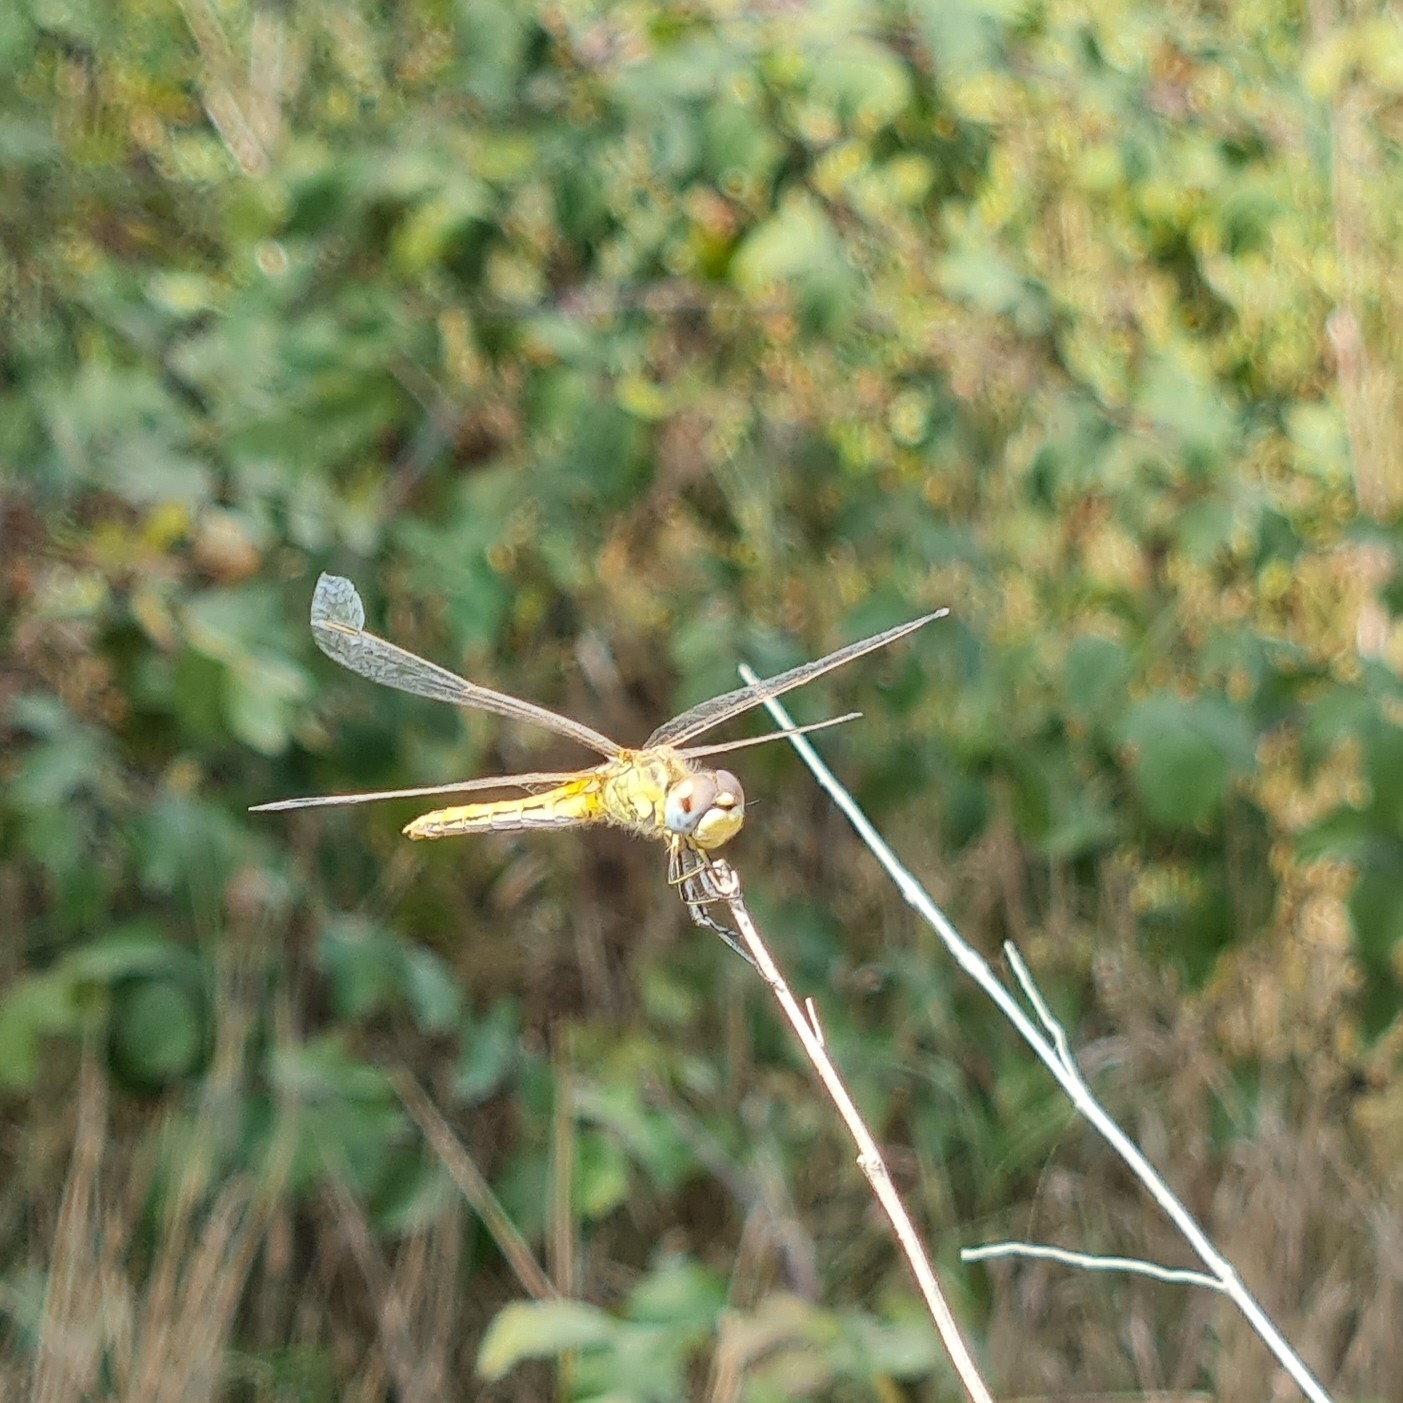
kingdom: Animalia
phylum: Arthropoda
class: Insecta
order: Odonata
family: Libellulidae
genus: Sympetrum
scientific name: Sympetrum fonscolombii
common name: Red-veined darter
